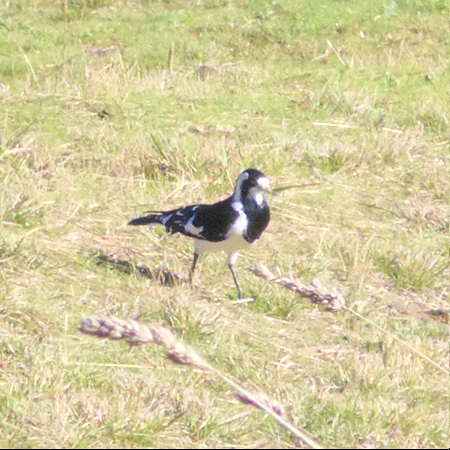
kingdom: Animalia
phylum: Chordata
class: Aves
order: Passeriformes
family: Monarchidae
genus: Grallina
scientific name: Grallina cyanoleuca
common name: Magpie-lark
